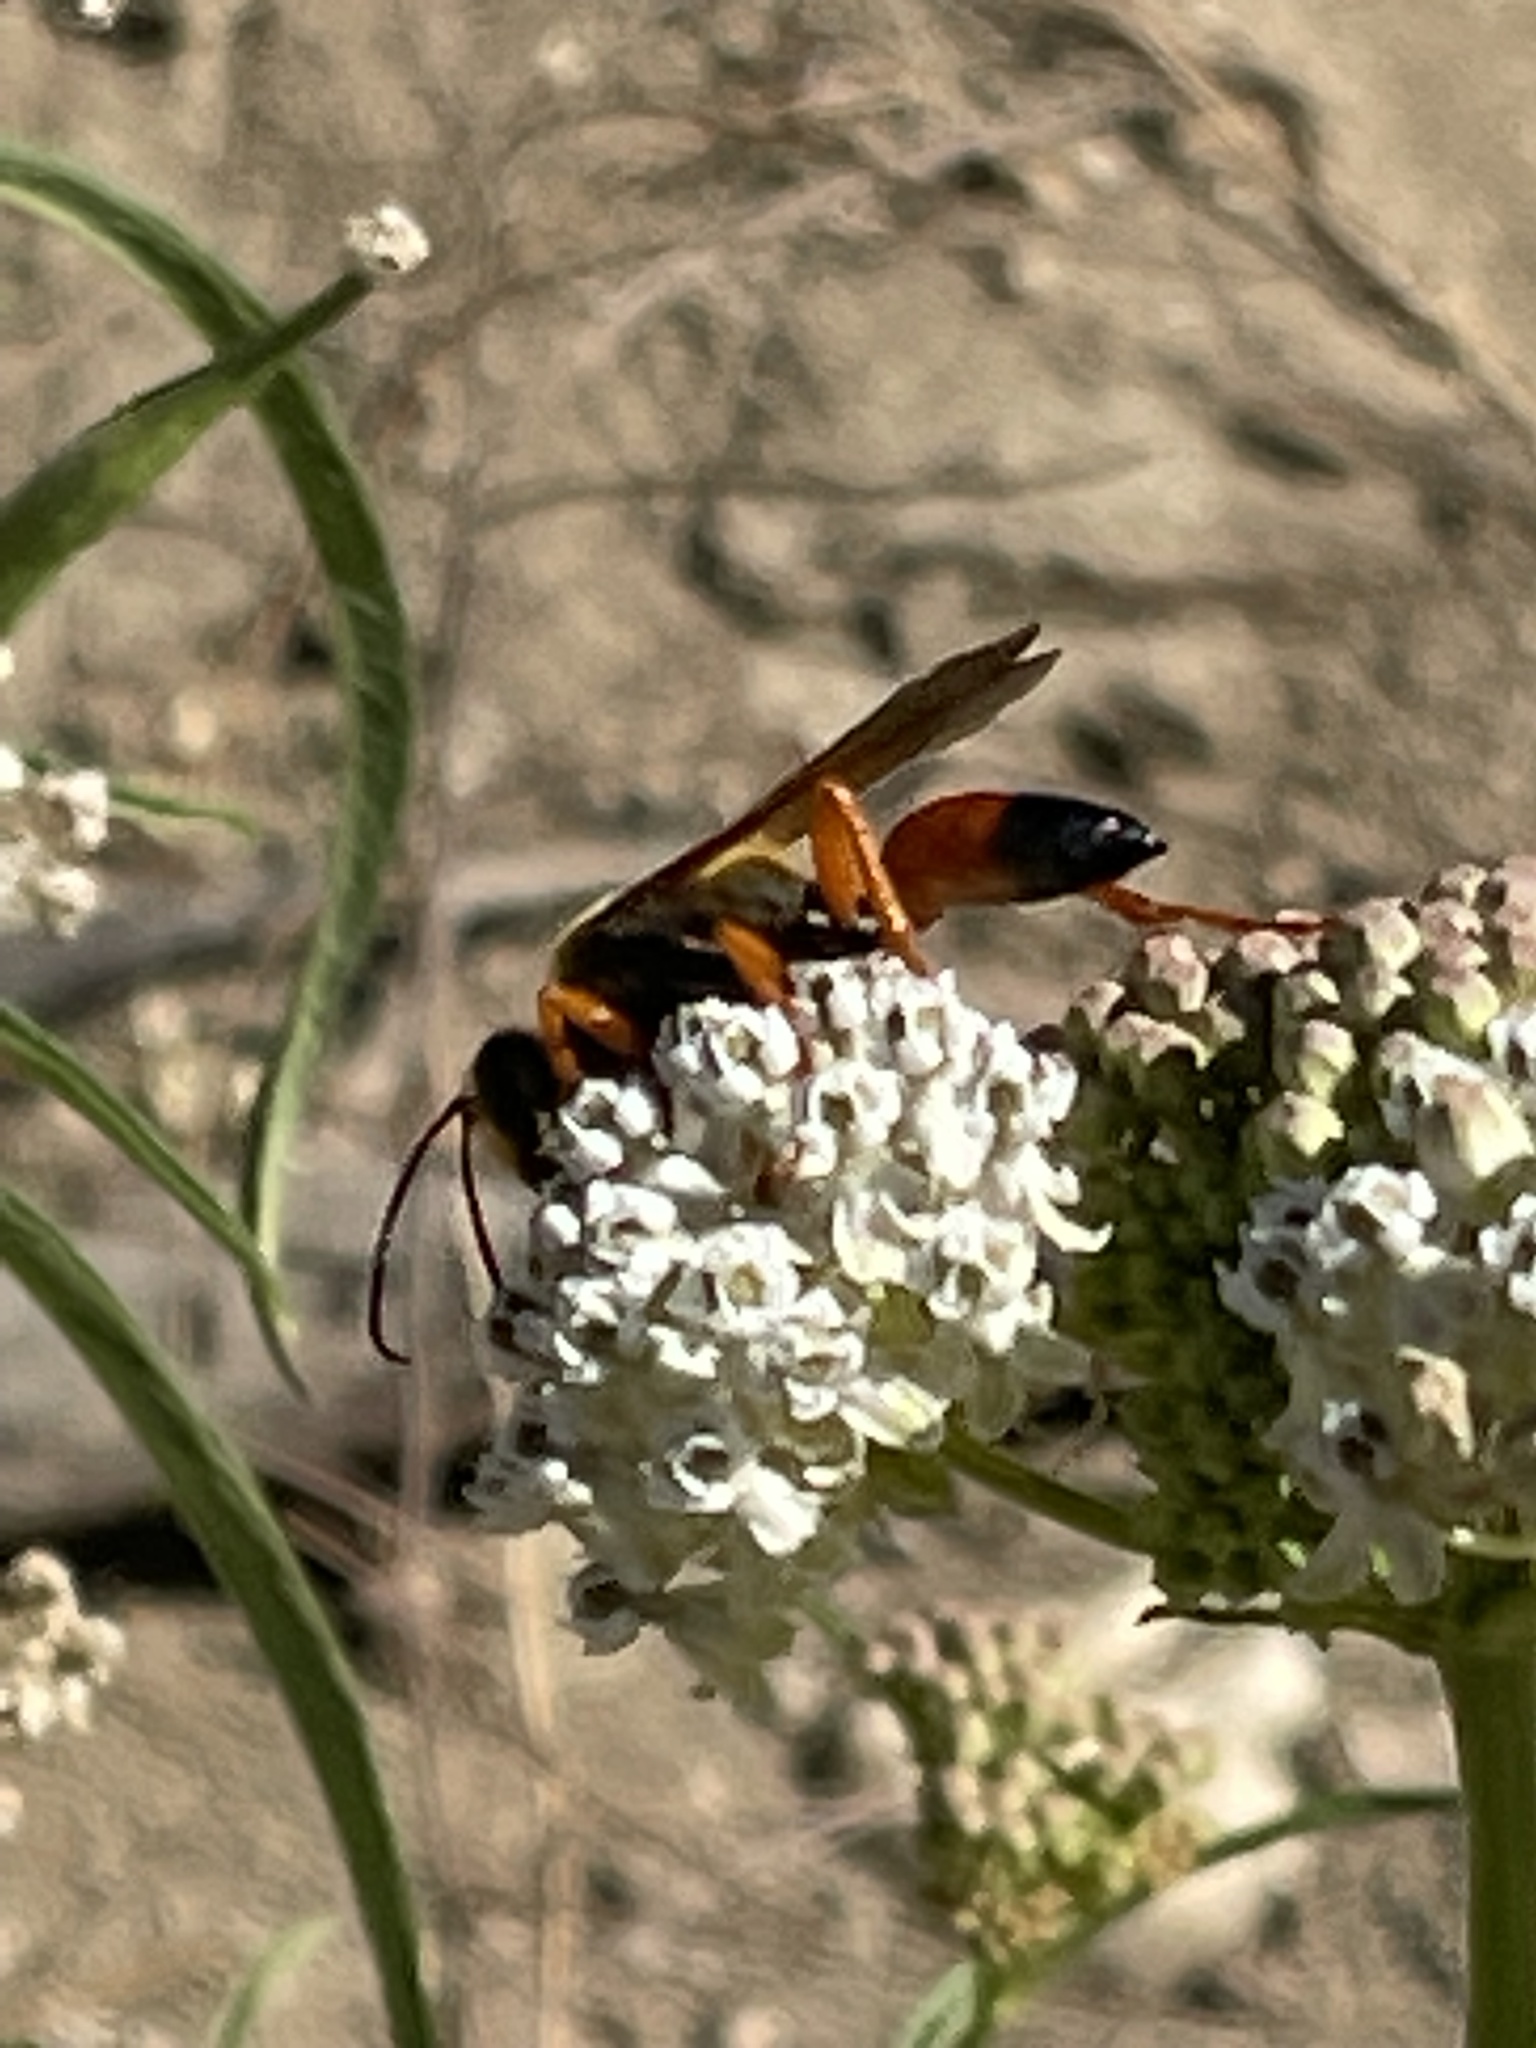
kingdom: Animalia
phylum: Arthropoda
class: Insecta
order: Hymenoptera
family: Sphecidae
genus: Sphex
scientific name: Sphex ichneumoneus
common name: Great golden digger wasp
